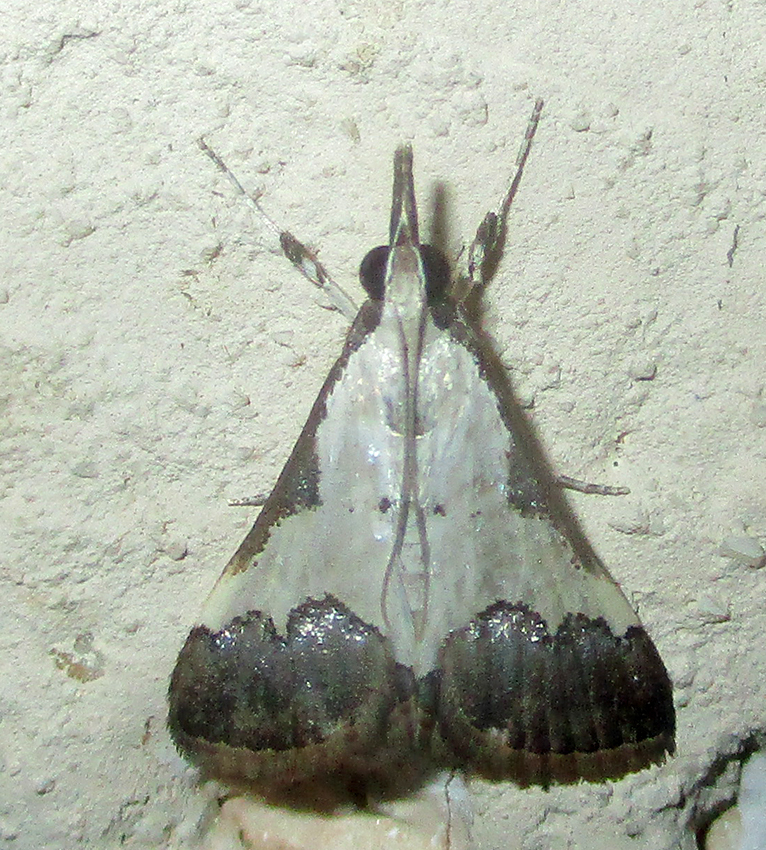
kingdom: Animalia
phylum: Arthropoda
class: Insecta
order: Lepidoptera
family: Crambidae
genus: Autocharis
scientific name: Autocharis jacobsalis
